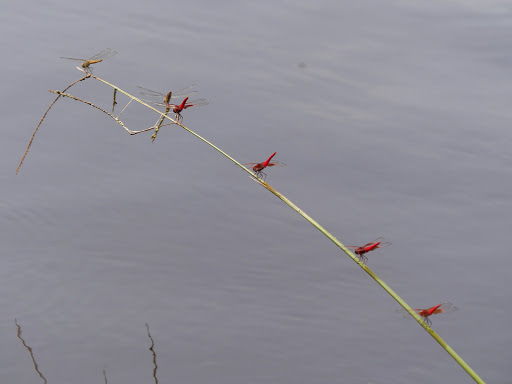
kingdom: Animalia
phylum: Arthropoda
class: Insecta
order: Odonata
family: Libellulidae
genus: Brachythemis
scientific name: Brachythemis lacustris
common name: Red groundling
